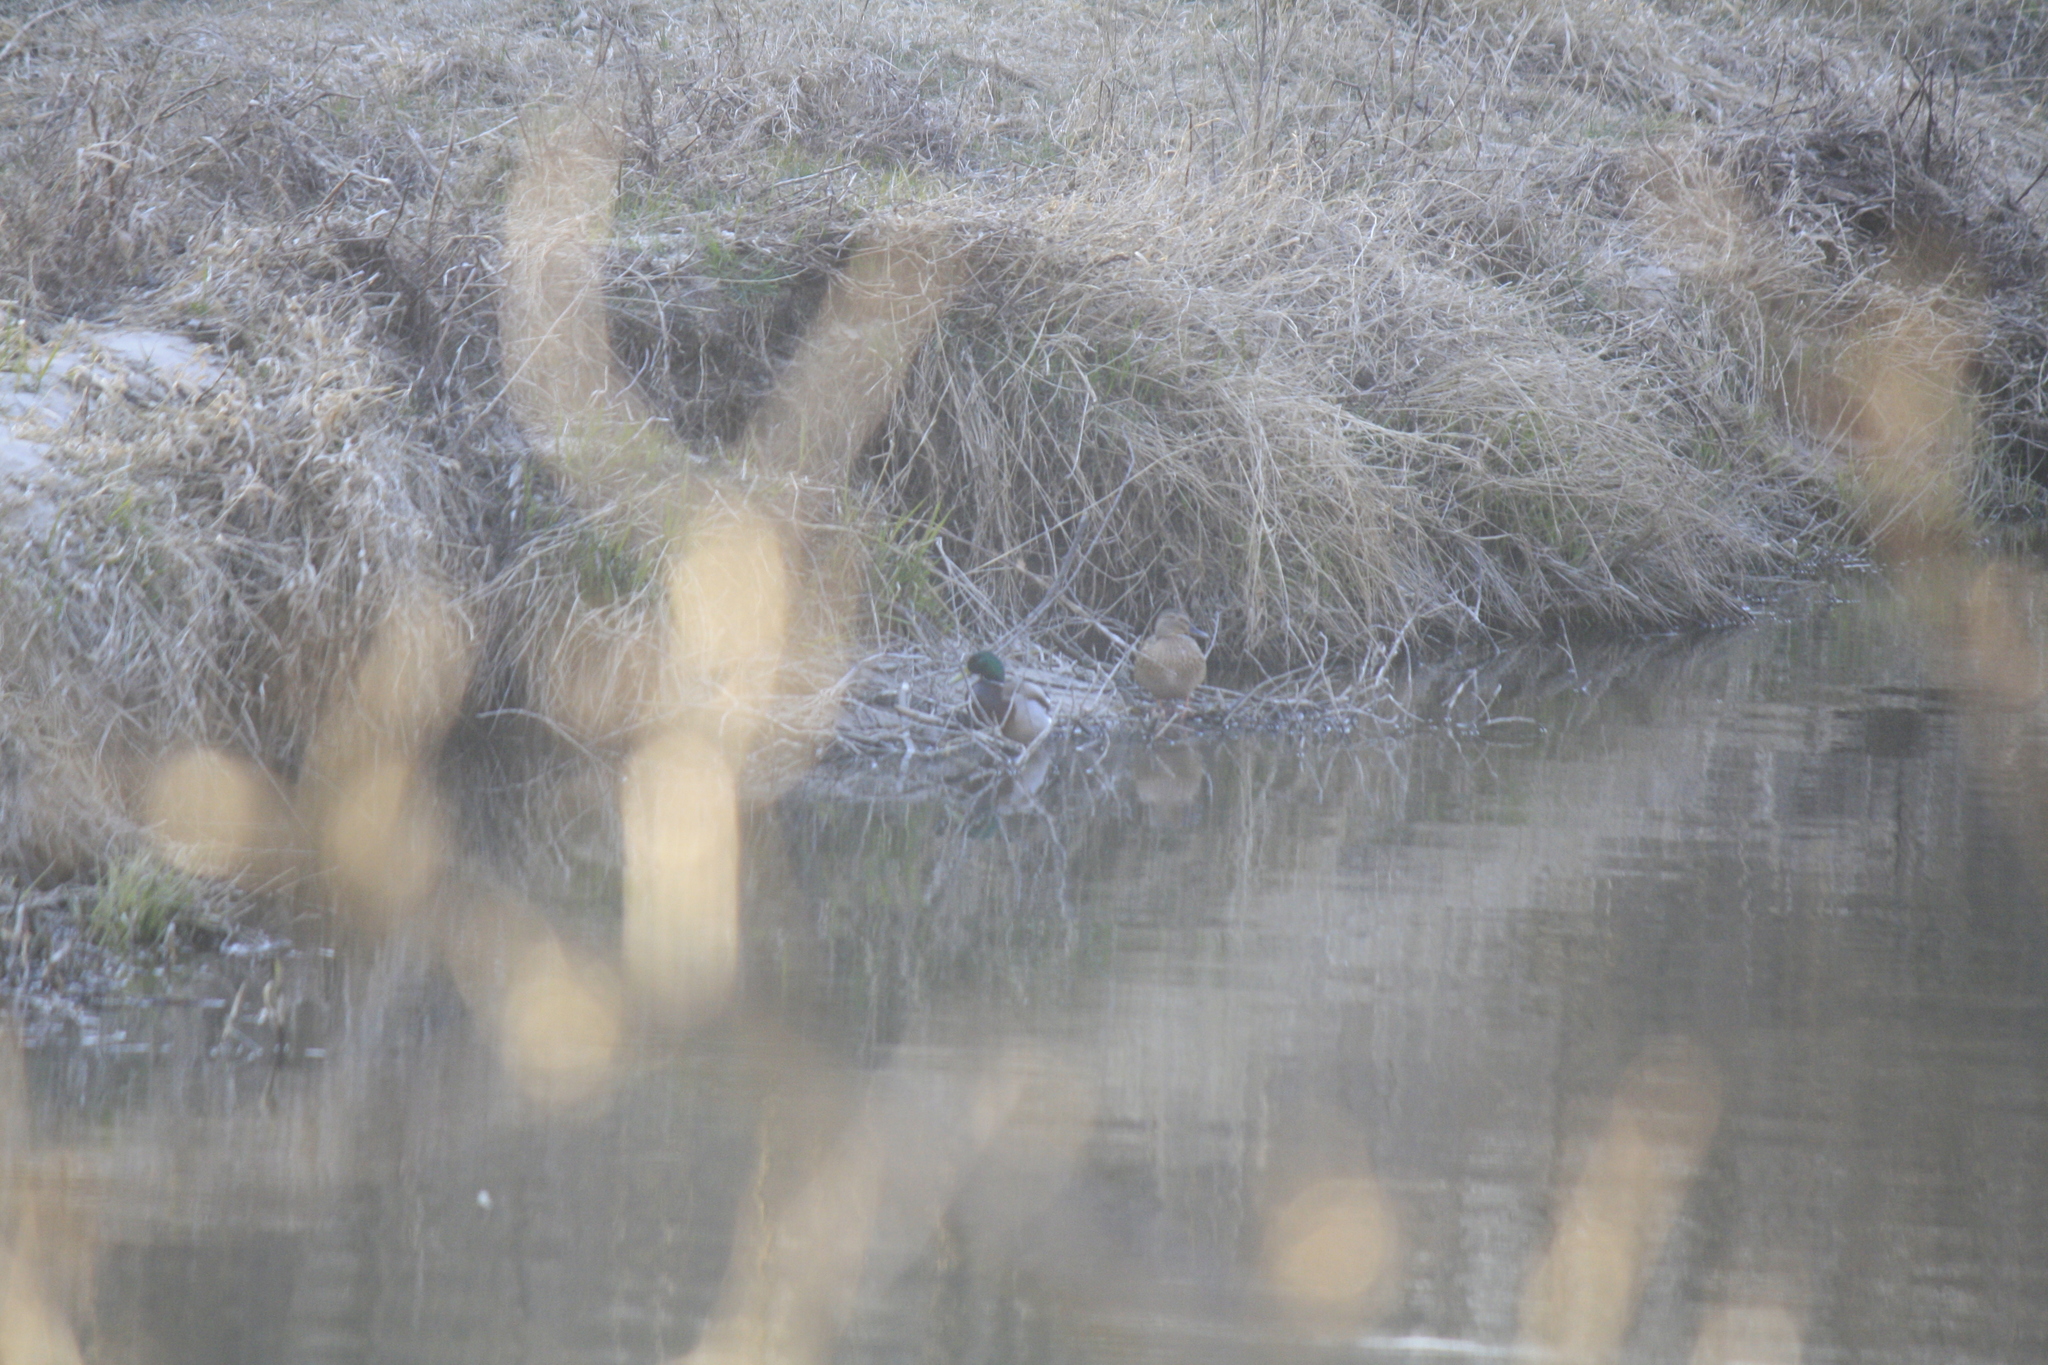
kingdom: Animalia
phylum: Chordata
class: Aves
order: Anseriformes
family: Anatidae
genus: Anas
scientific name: Anas platyrhynchos
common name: Mallard
